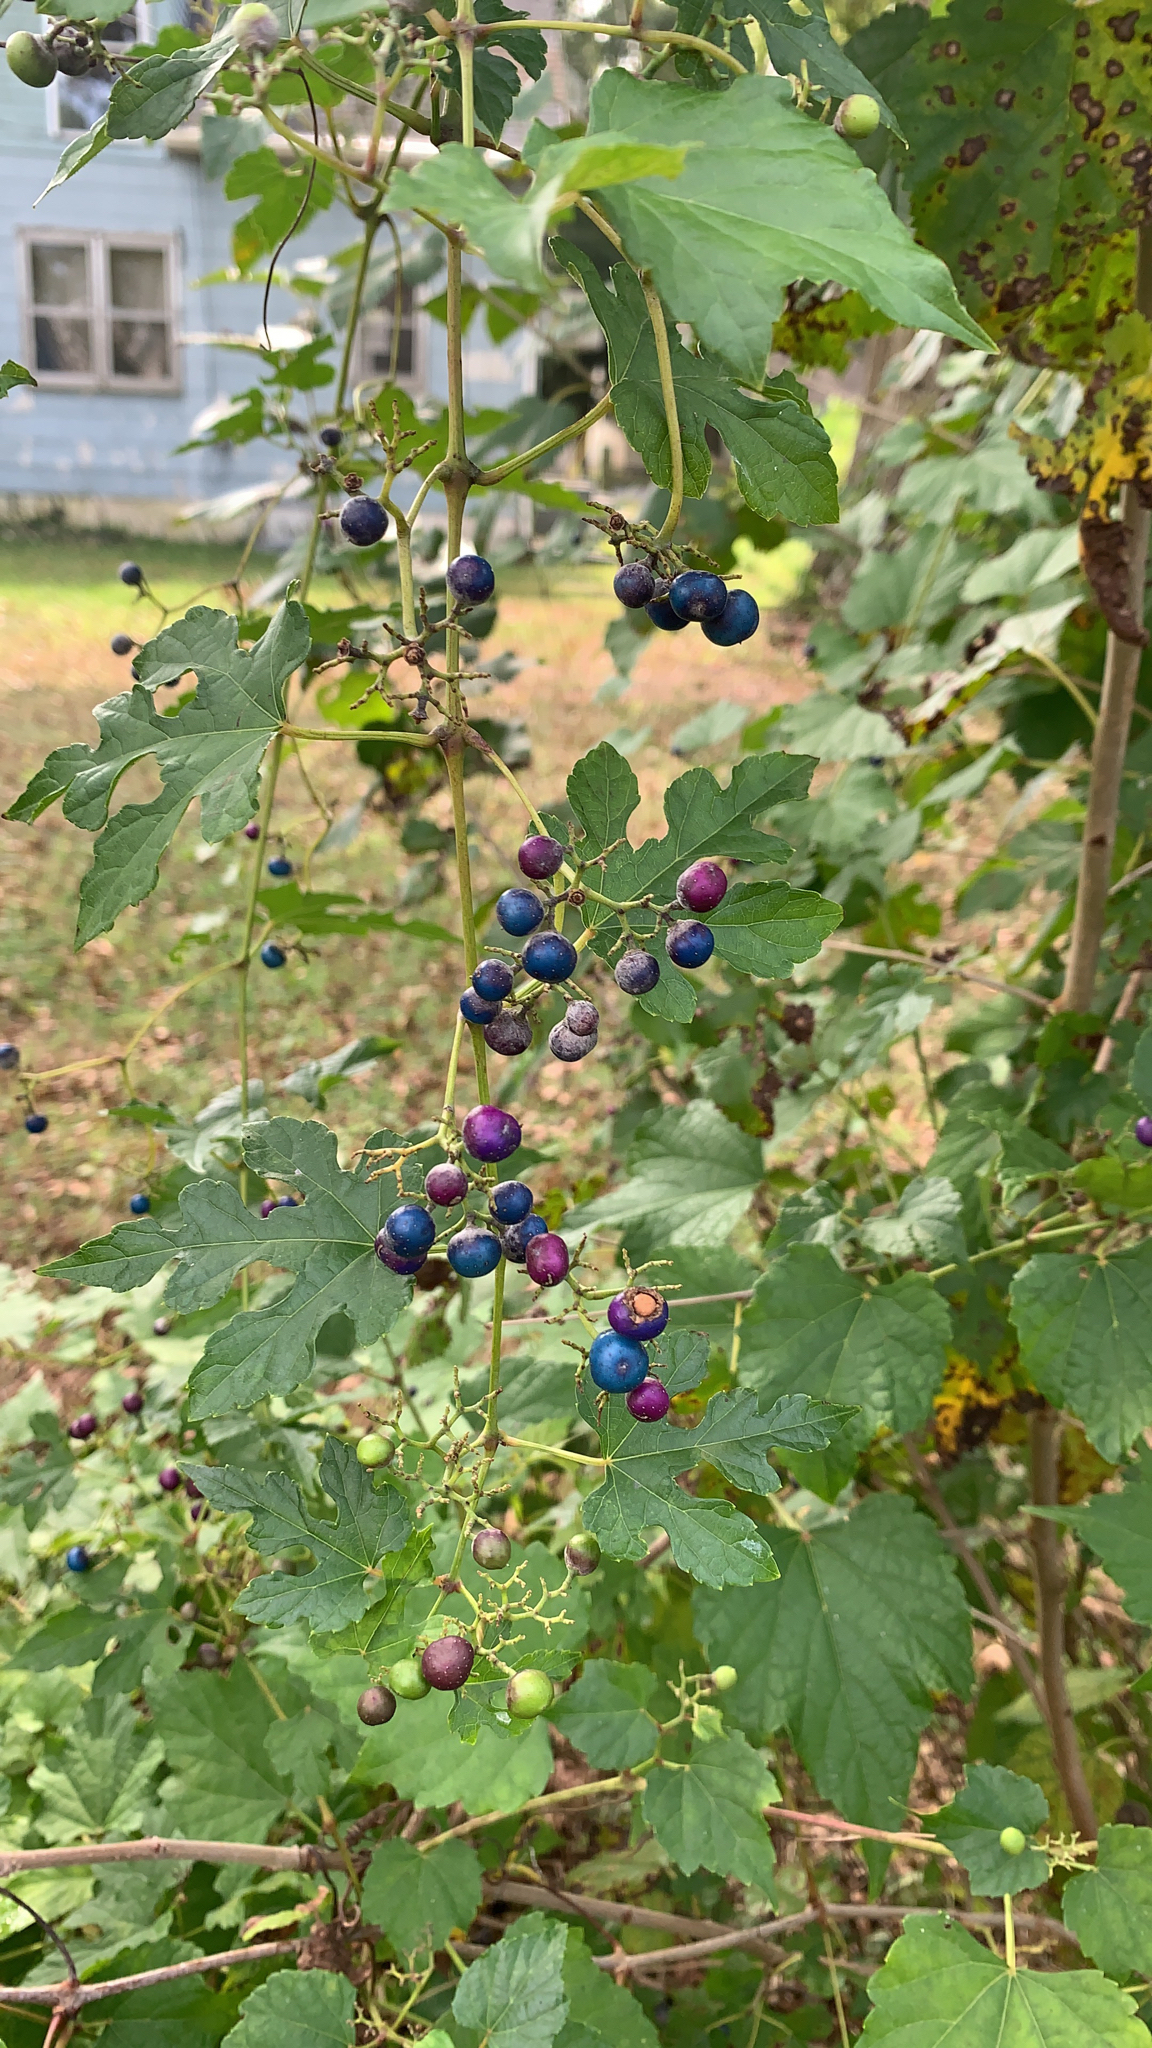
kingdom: Plantae
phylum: Tracheophyta
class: Magnoliopsida
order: Vitales
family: Vitaceae
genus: Ampelopsis
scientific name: Ampelopsis glandulosa
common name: Amur peppervine
